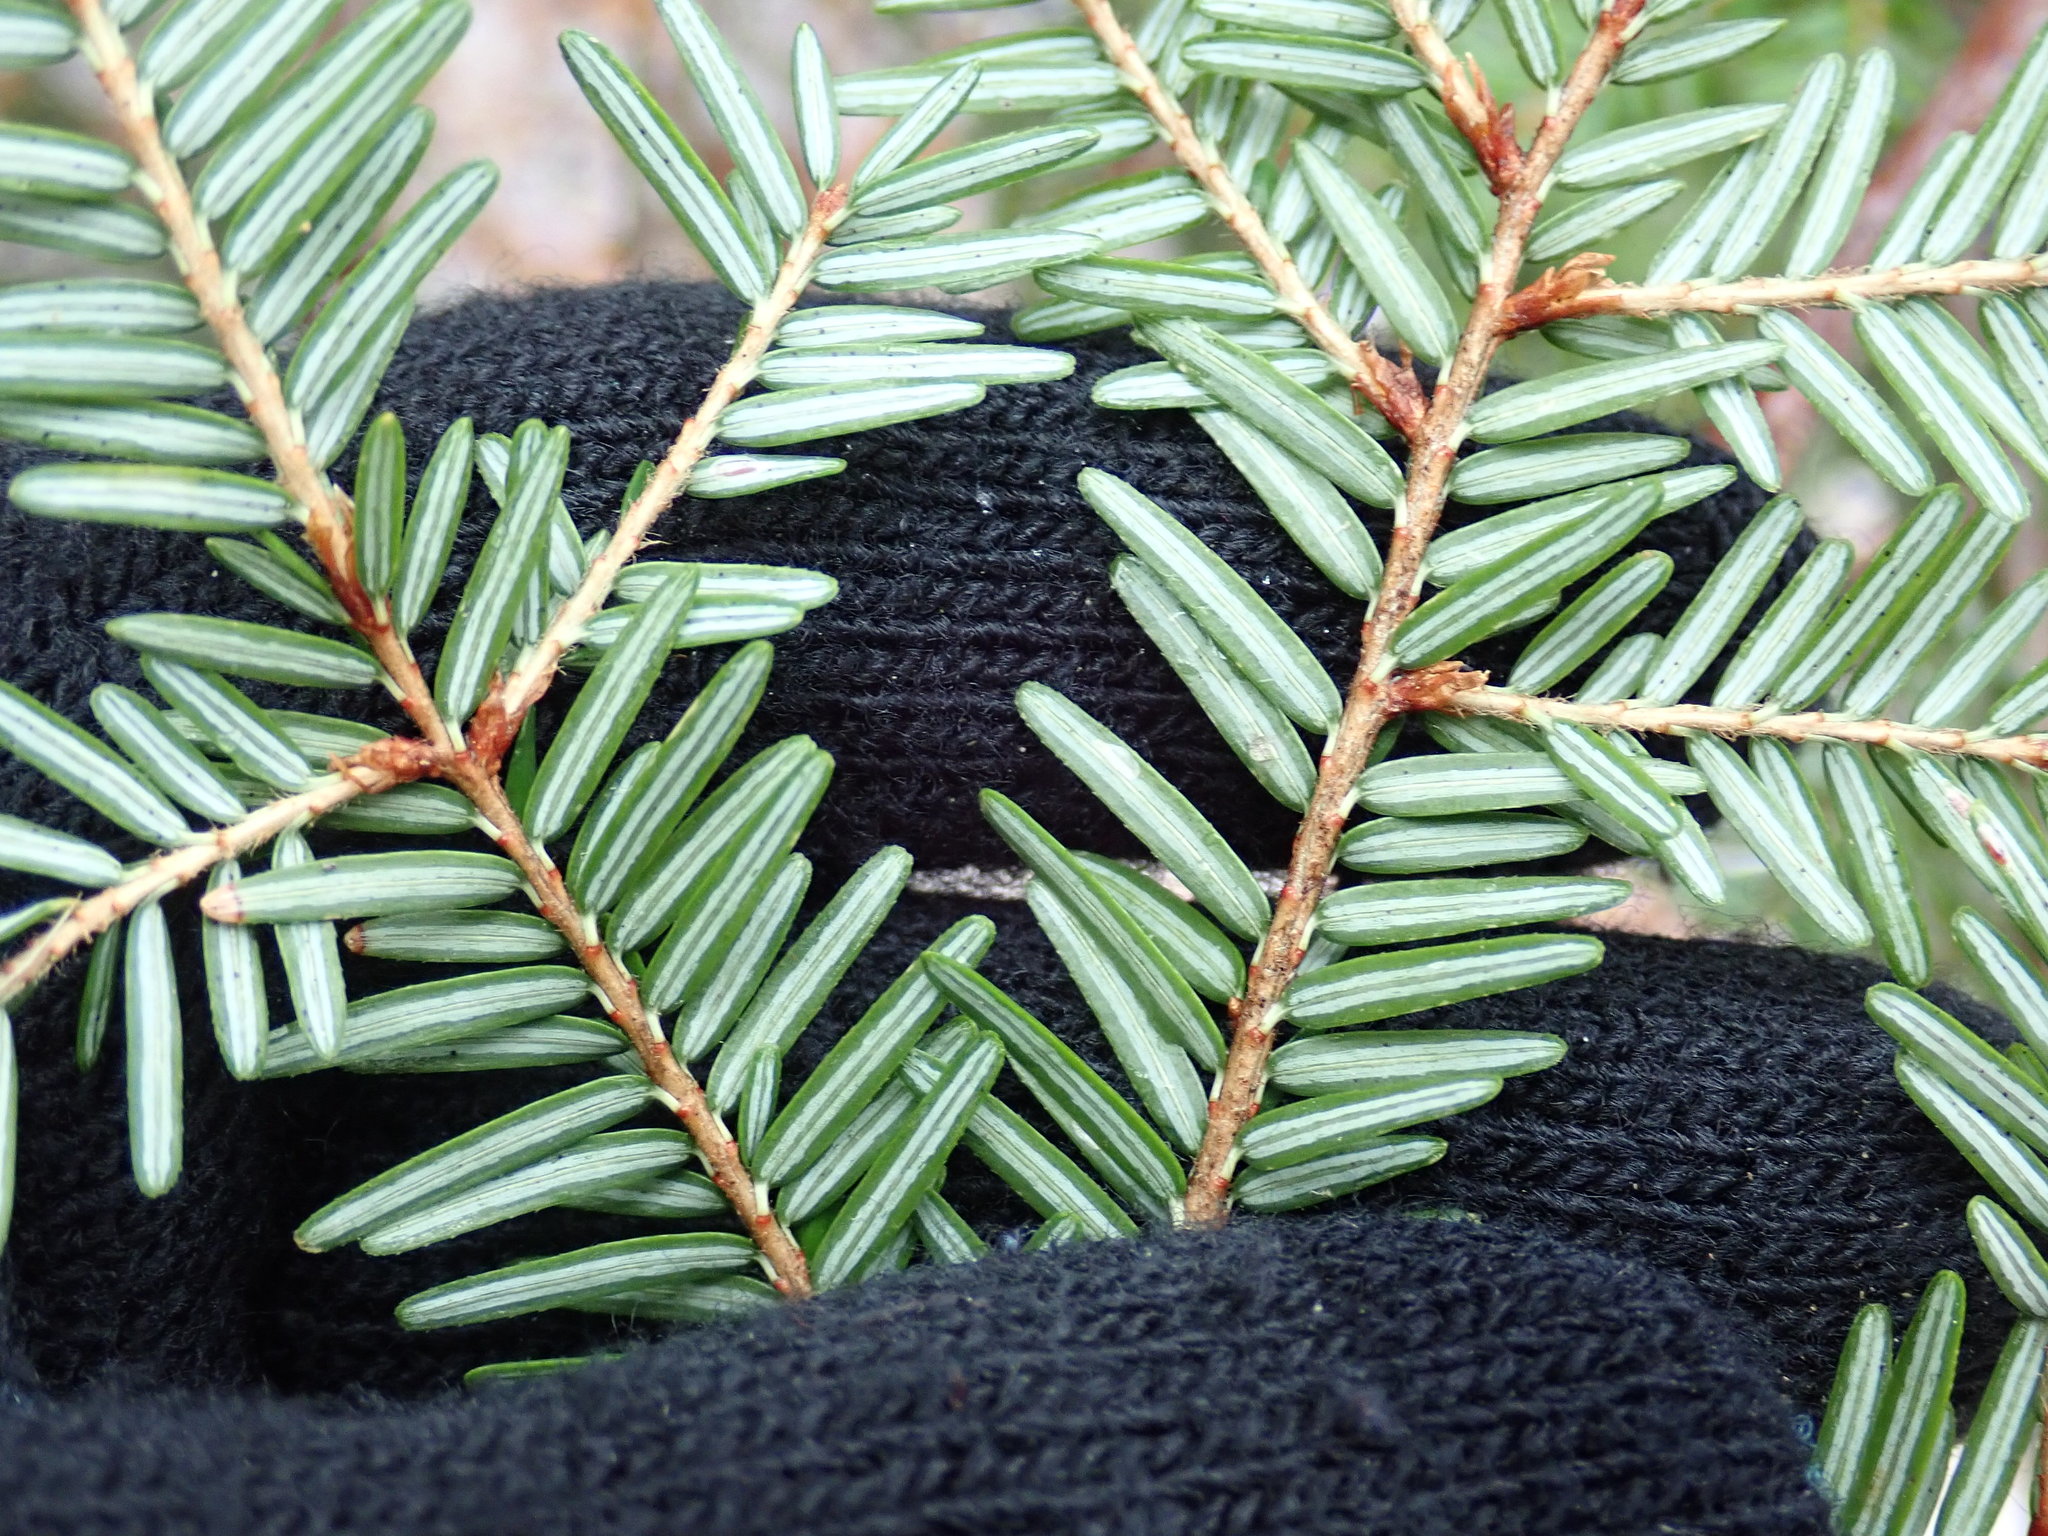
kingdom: Plantae
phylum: Tracheophyta
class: Pinopsida
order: Pinales
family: Pinaceae
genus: Tsuga
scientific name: Tsuga canadensis
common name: Eastern hemlock
